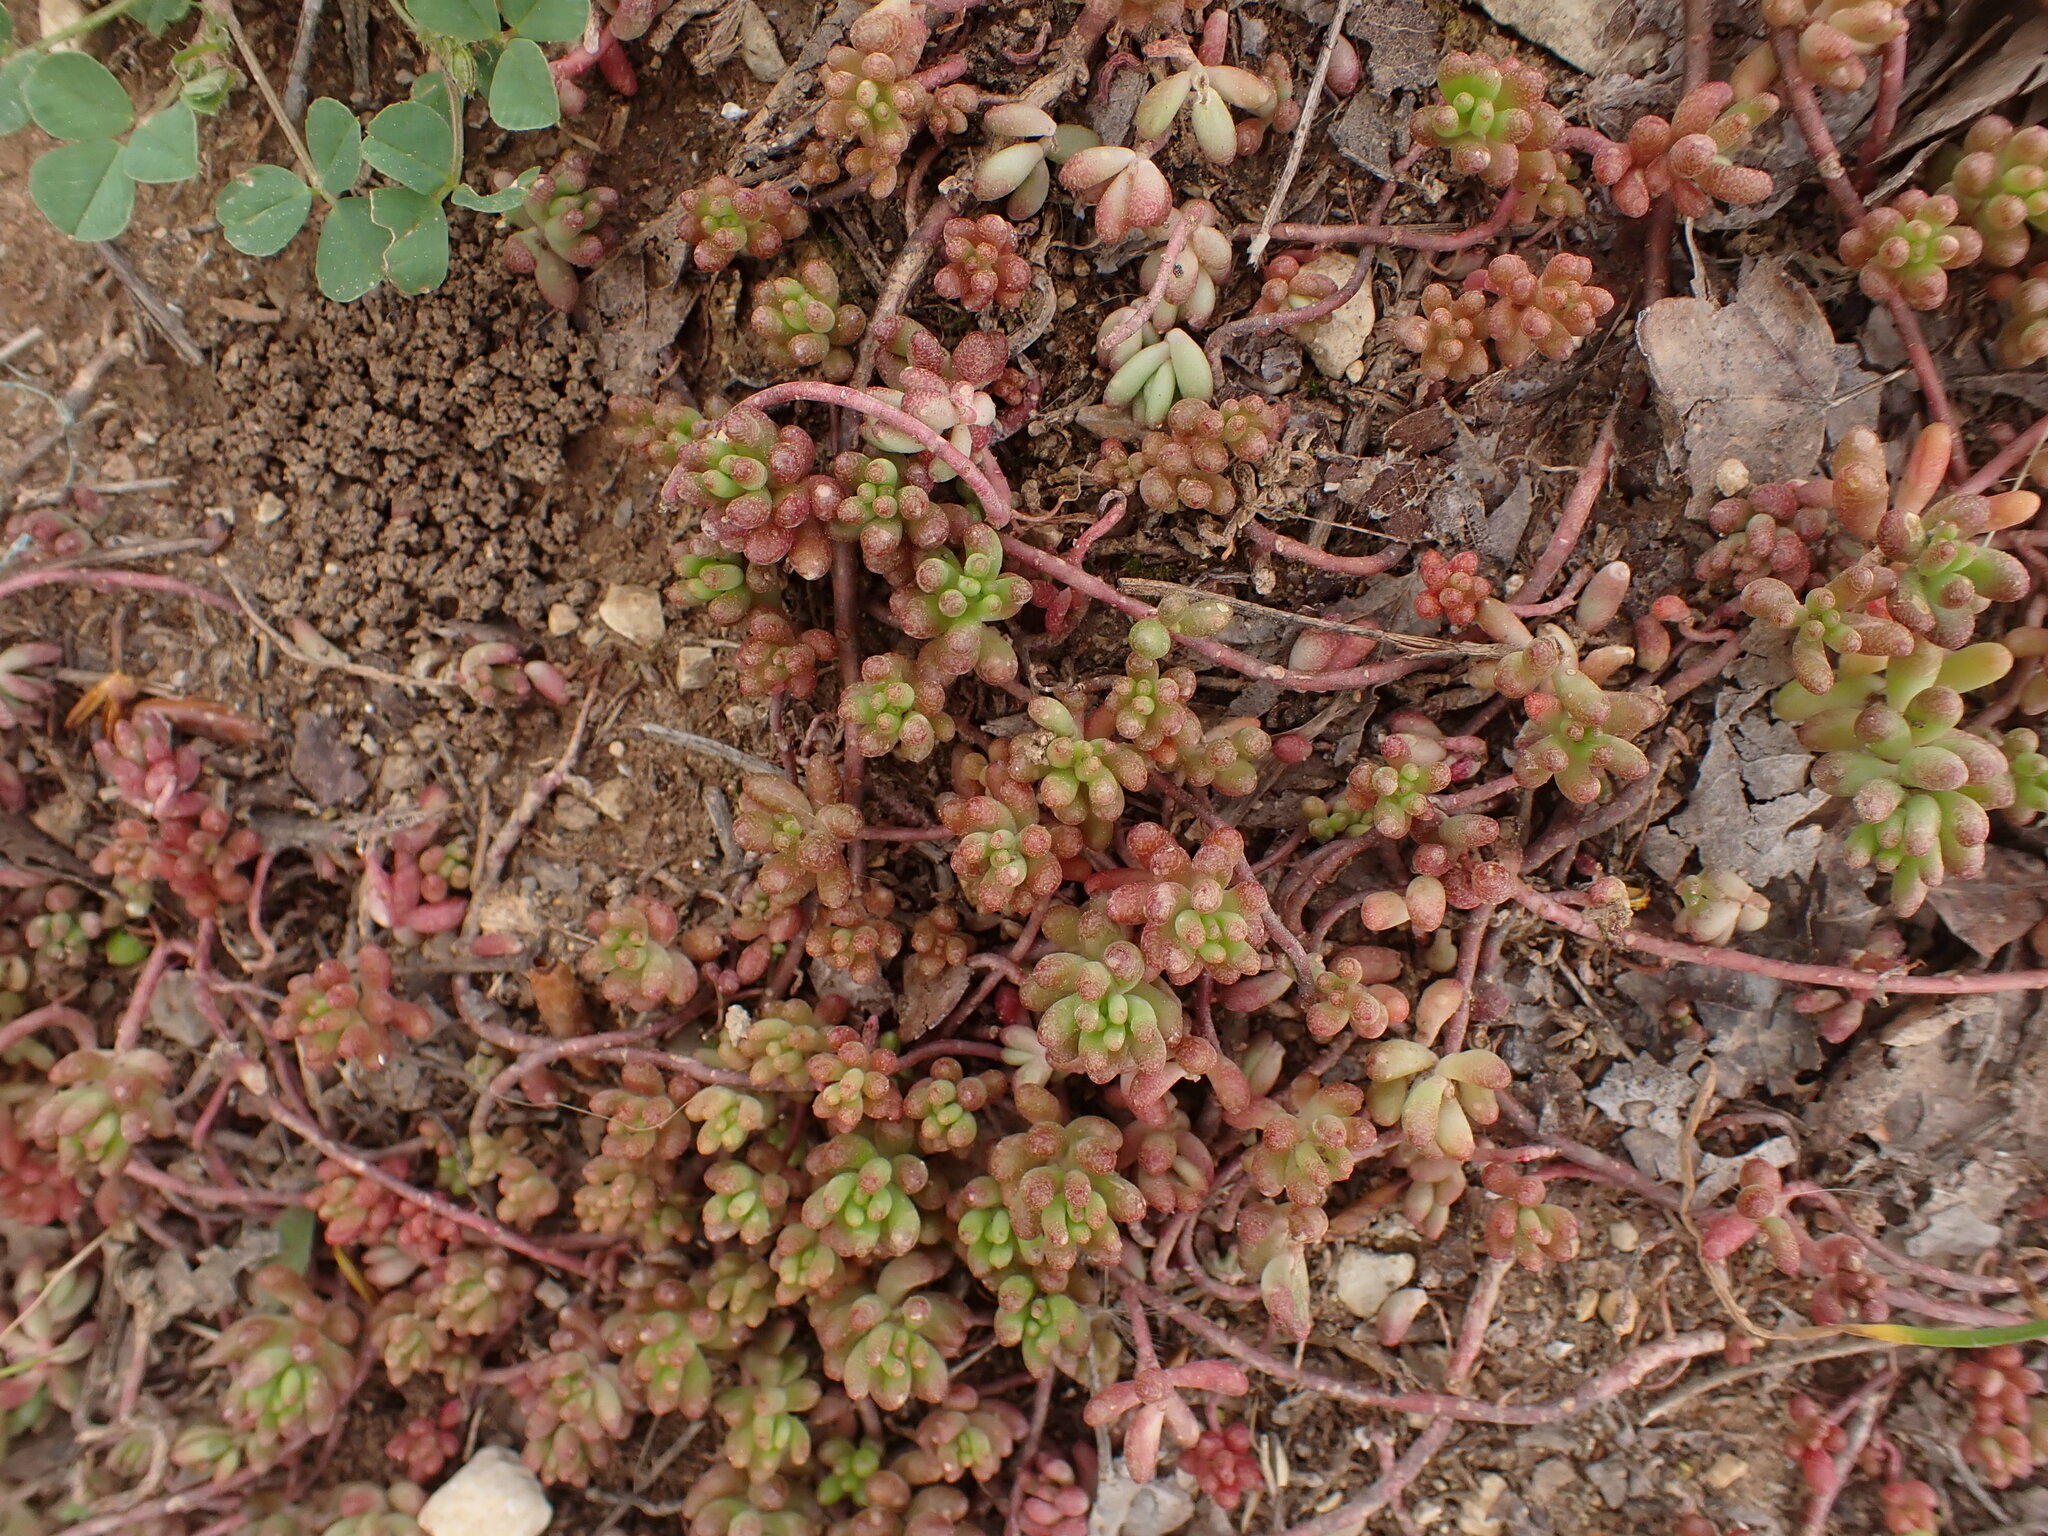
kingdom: Plantae
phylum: Tracheophyta
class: Magnoliopsida
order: Saxifragales
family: Crassulaceae
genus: Sedum
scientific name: Sedum album
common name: White stonecrop
